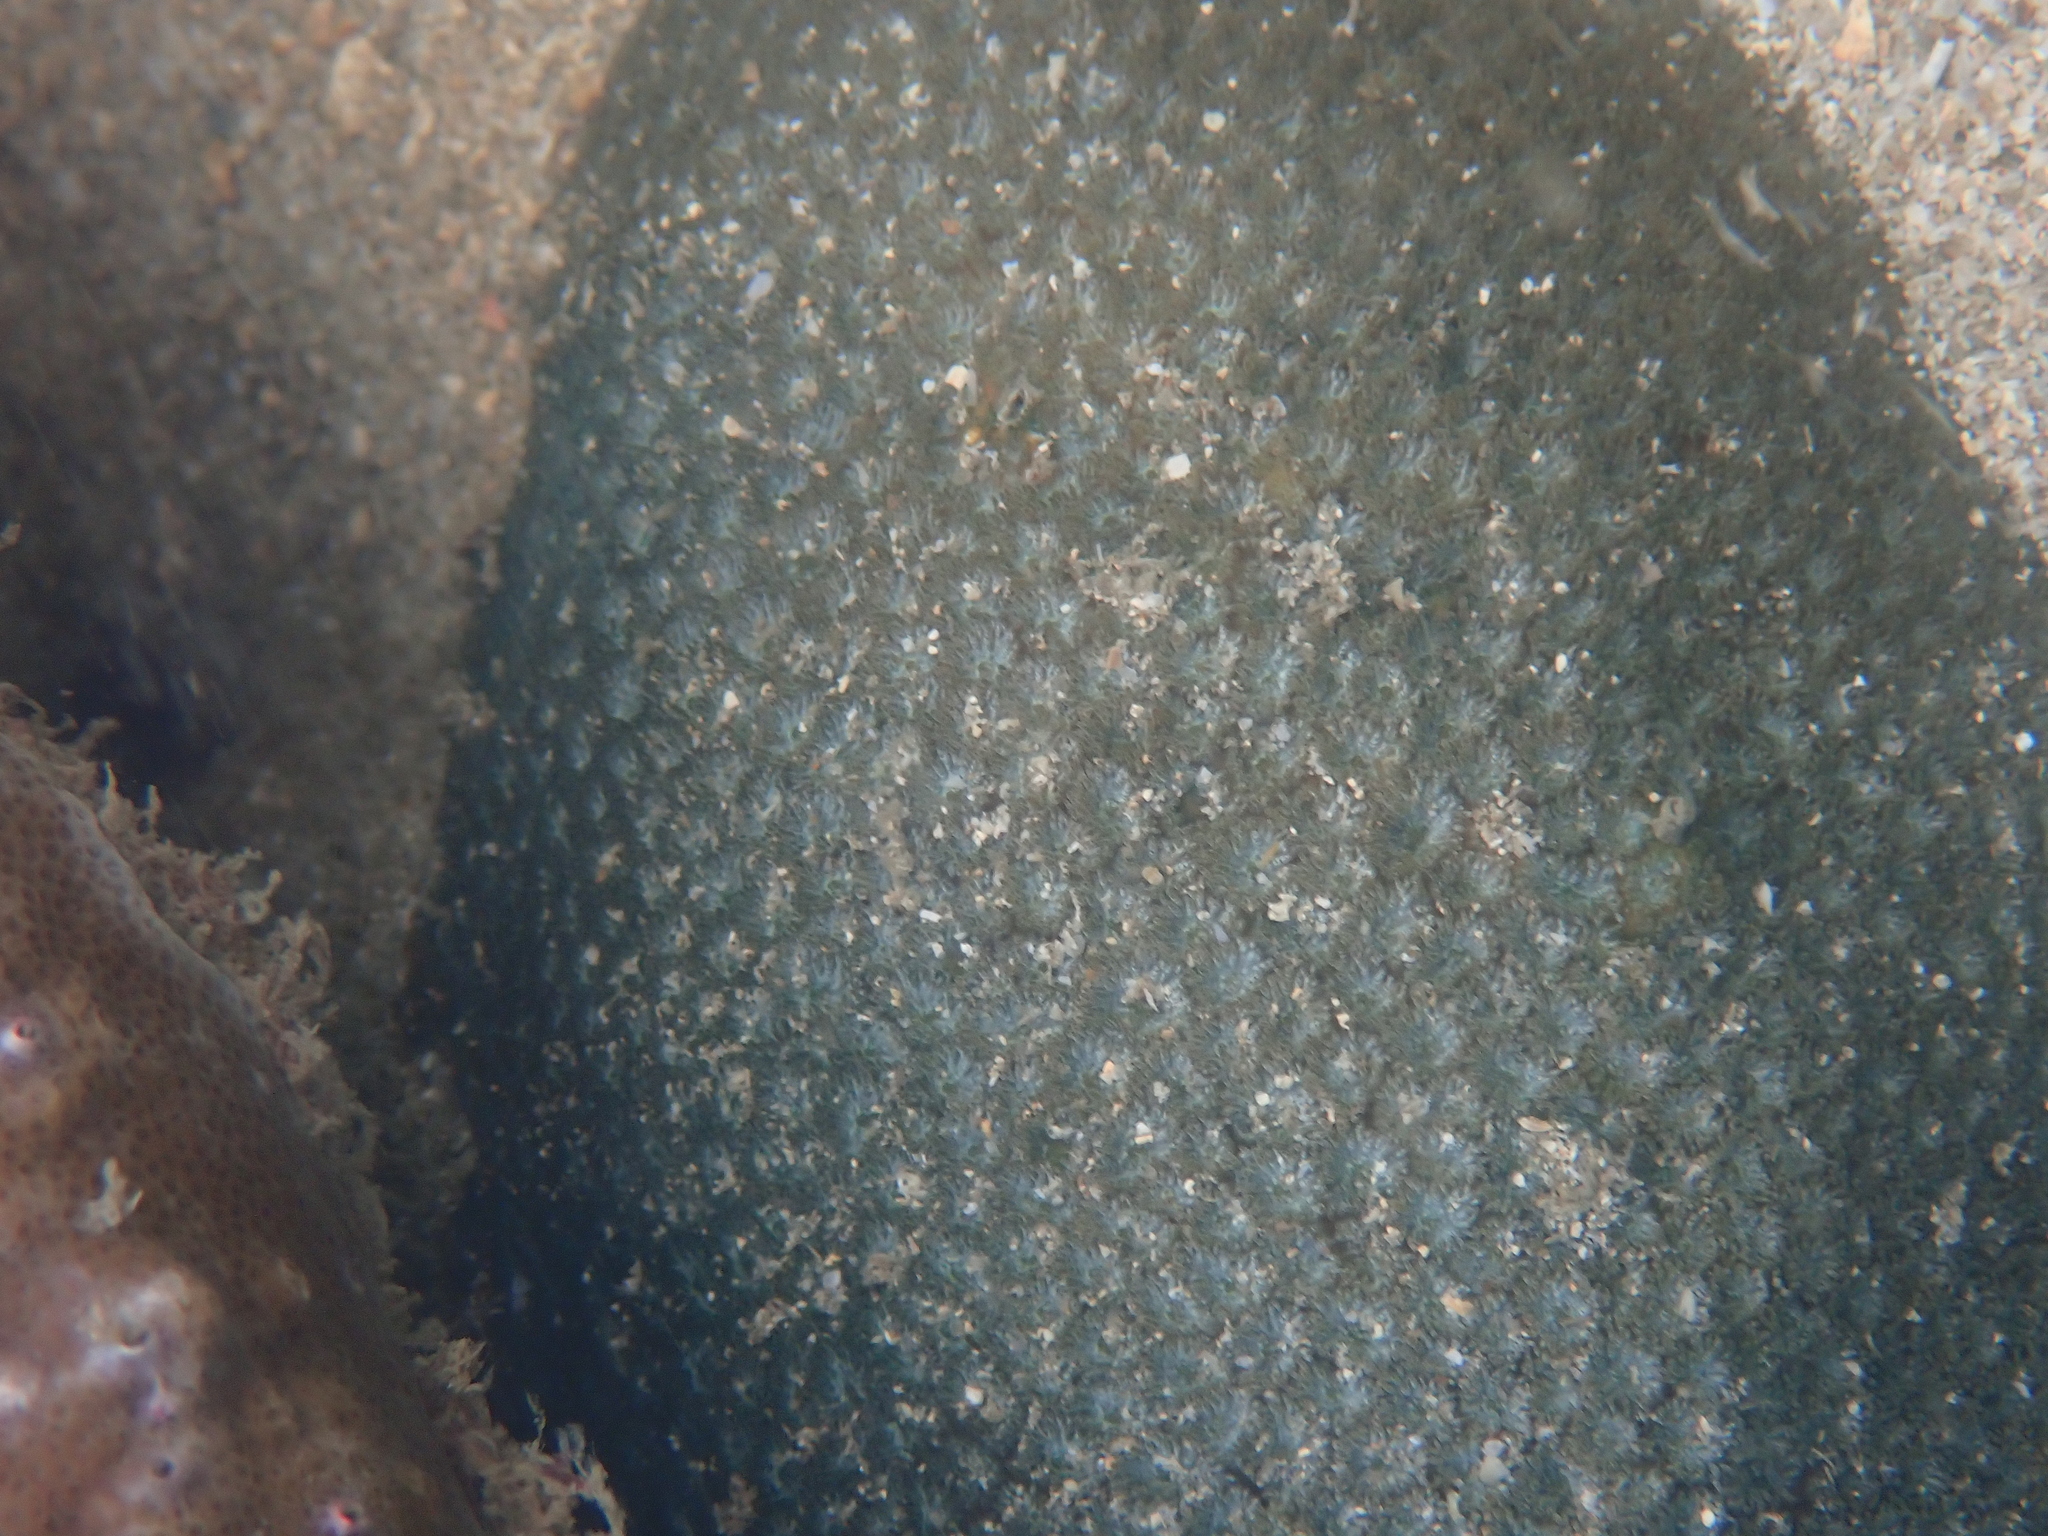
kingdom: Animalia
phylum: Cnidaria
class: Anthozoa
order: Scleractinia
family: Leptastreidae
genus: Leptastrea
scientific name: Leptastrea transversa
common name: Crust coral
